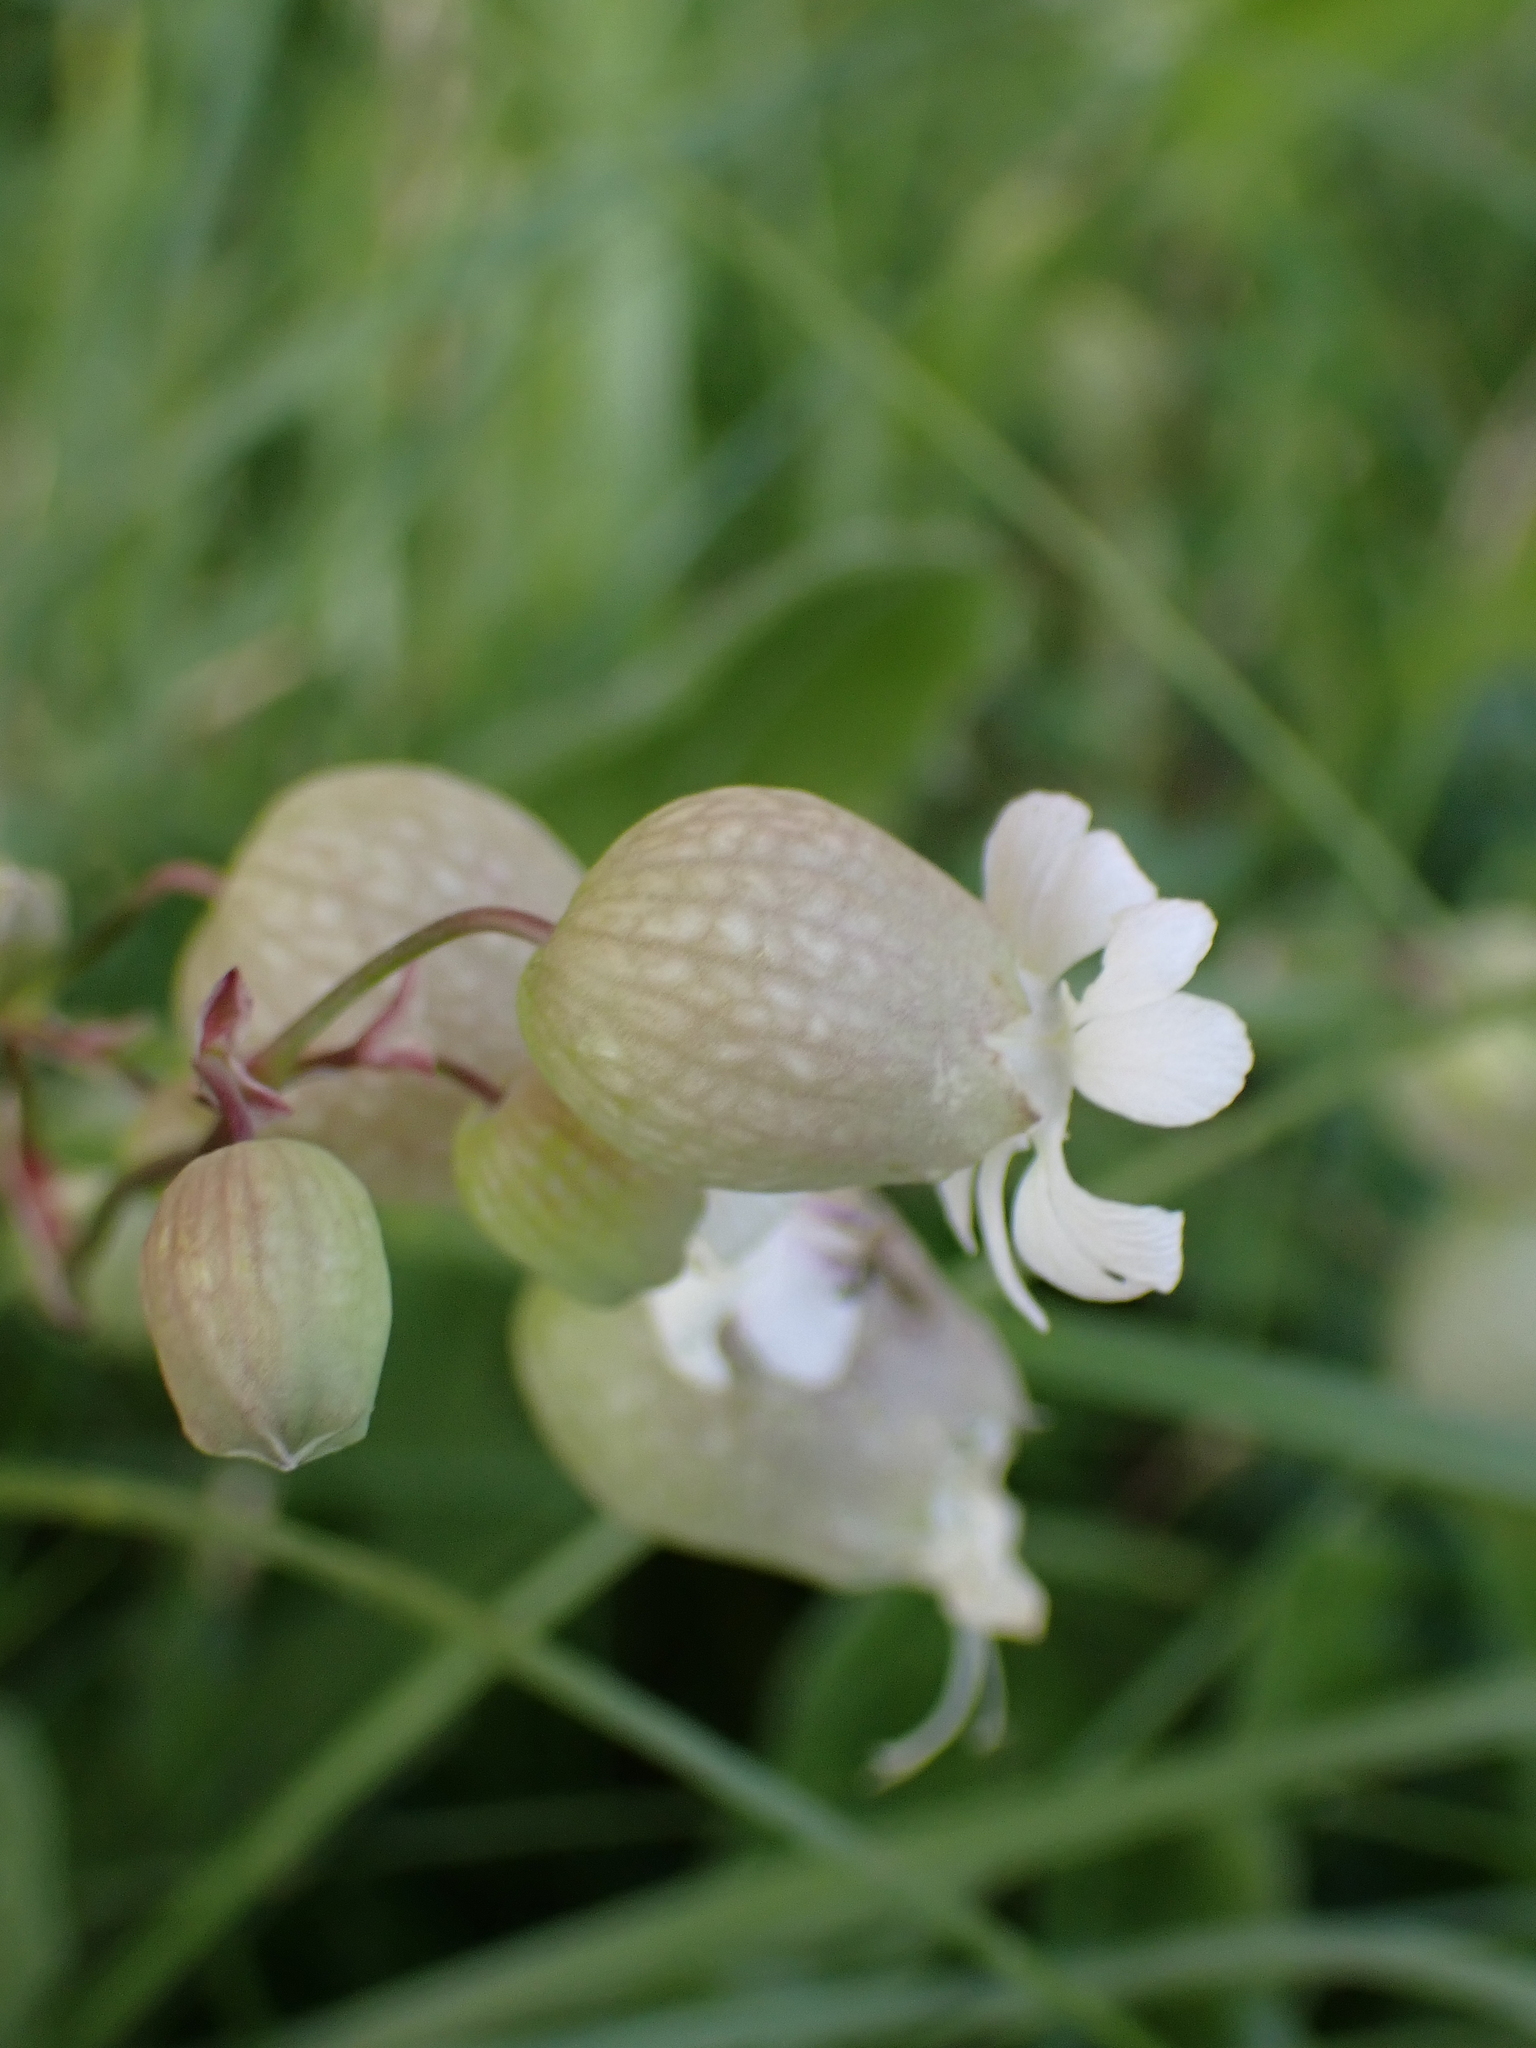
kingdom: Plantae
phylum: Tracheophyta
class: Magnoliopsida
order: Caryophyllales
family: Caryophyllaceae
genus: Silene
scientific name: Silene vulgaris
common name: Bladder campion
